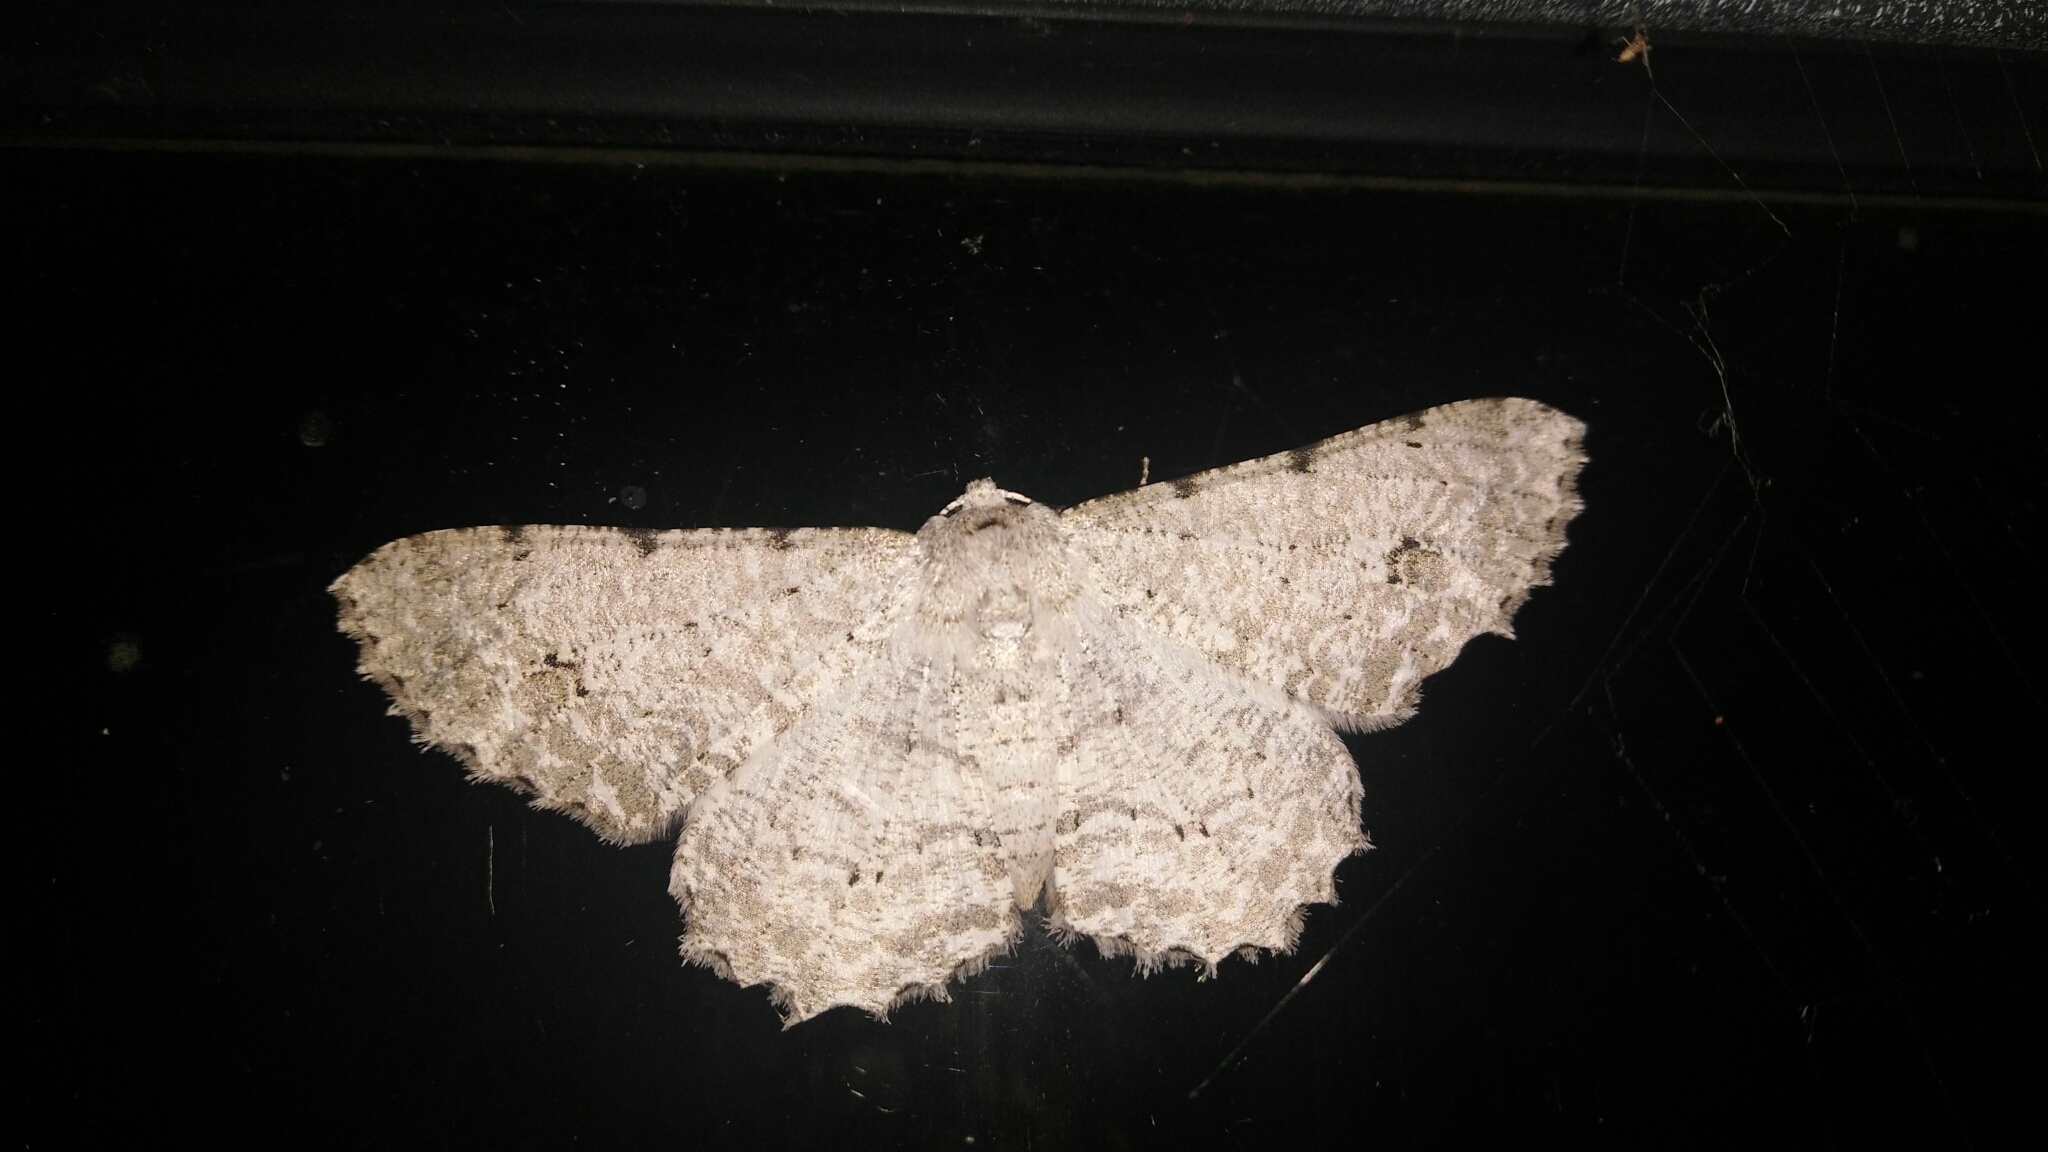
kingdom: Animalia
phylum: Arthropoda
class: Insecta
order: Lepidoptera
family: Geometridae
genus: Lassaba
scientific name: Lassaba parvalbidaria
